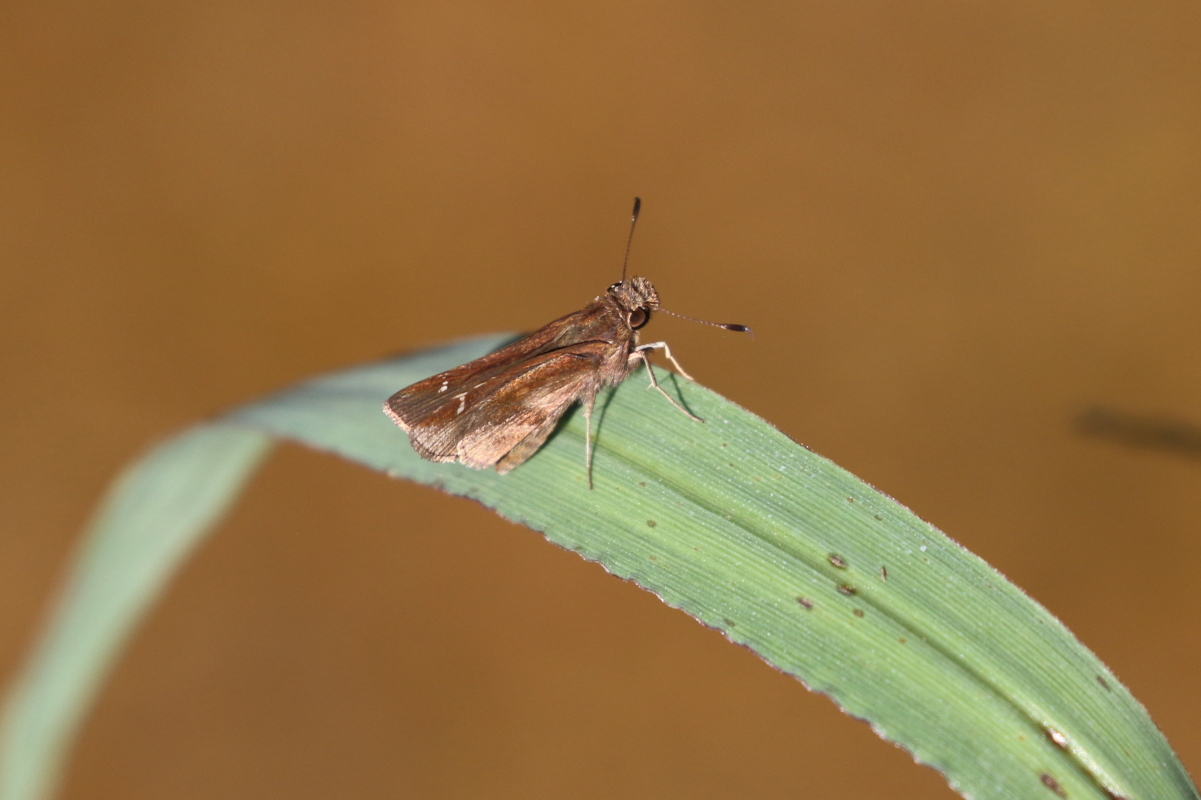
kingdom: Animalia
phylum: Arthropoda
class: Insecta
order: Lepidoptera
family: Hesperiidae
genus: Lerema
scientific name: Lerema accius
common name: Clouded skipper
